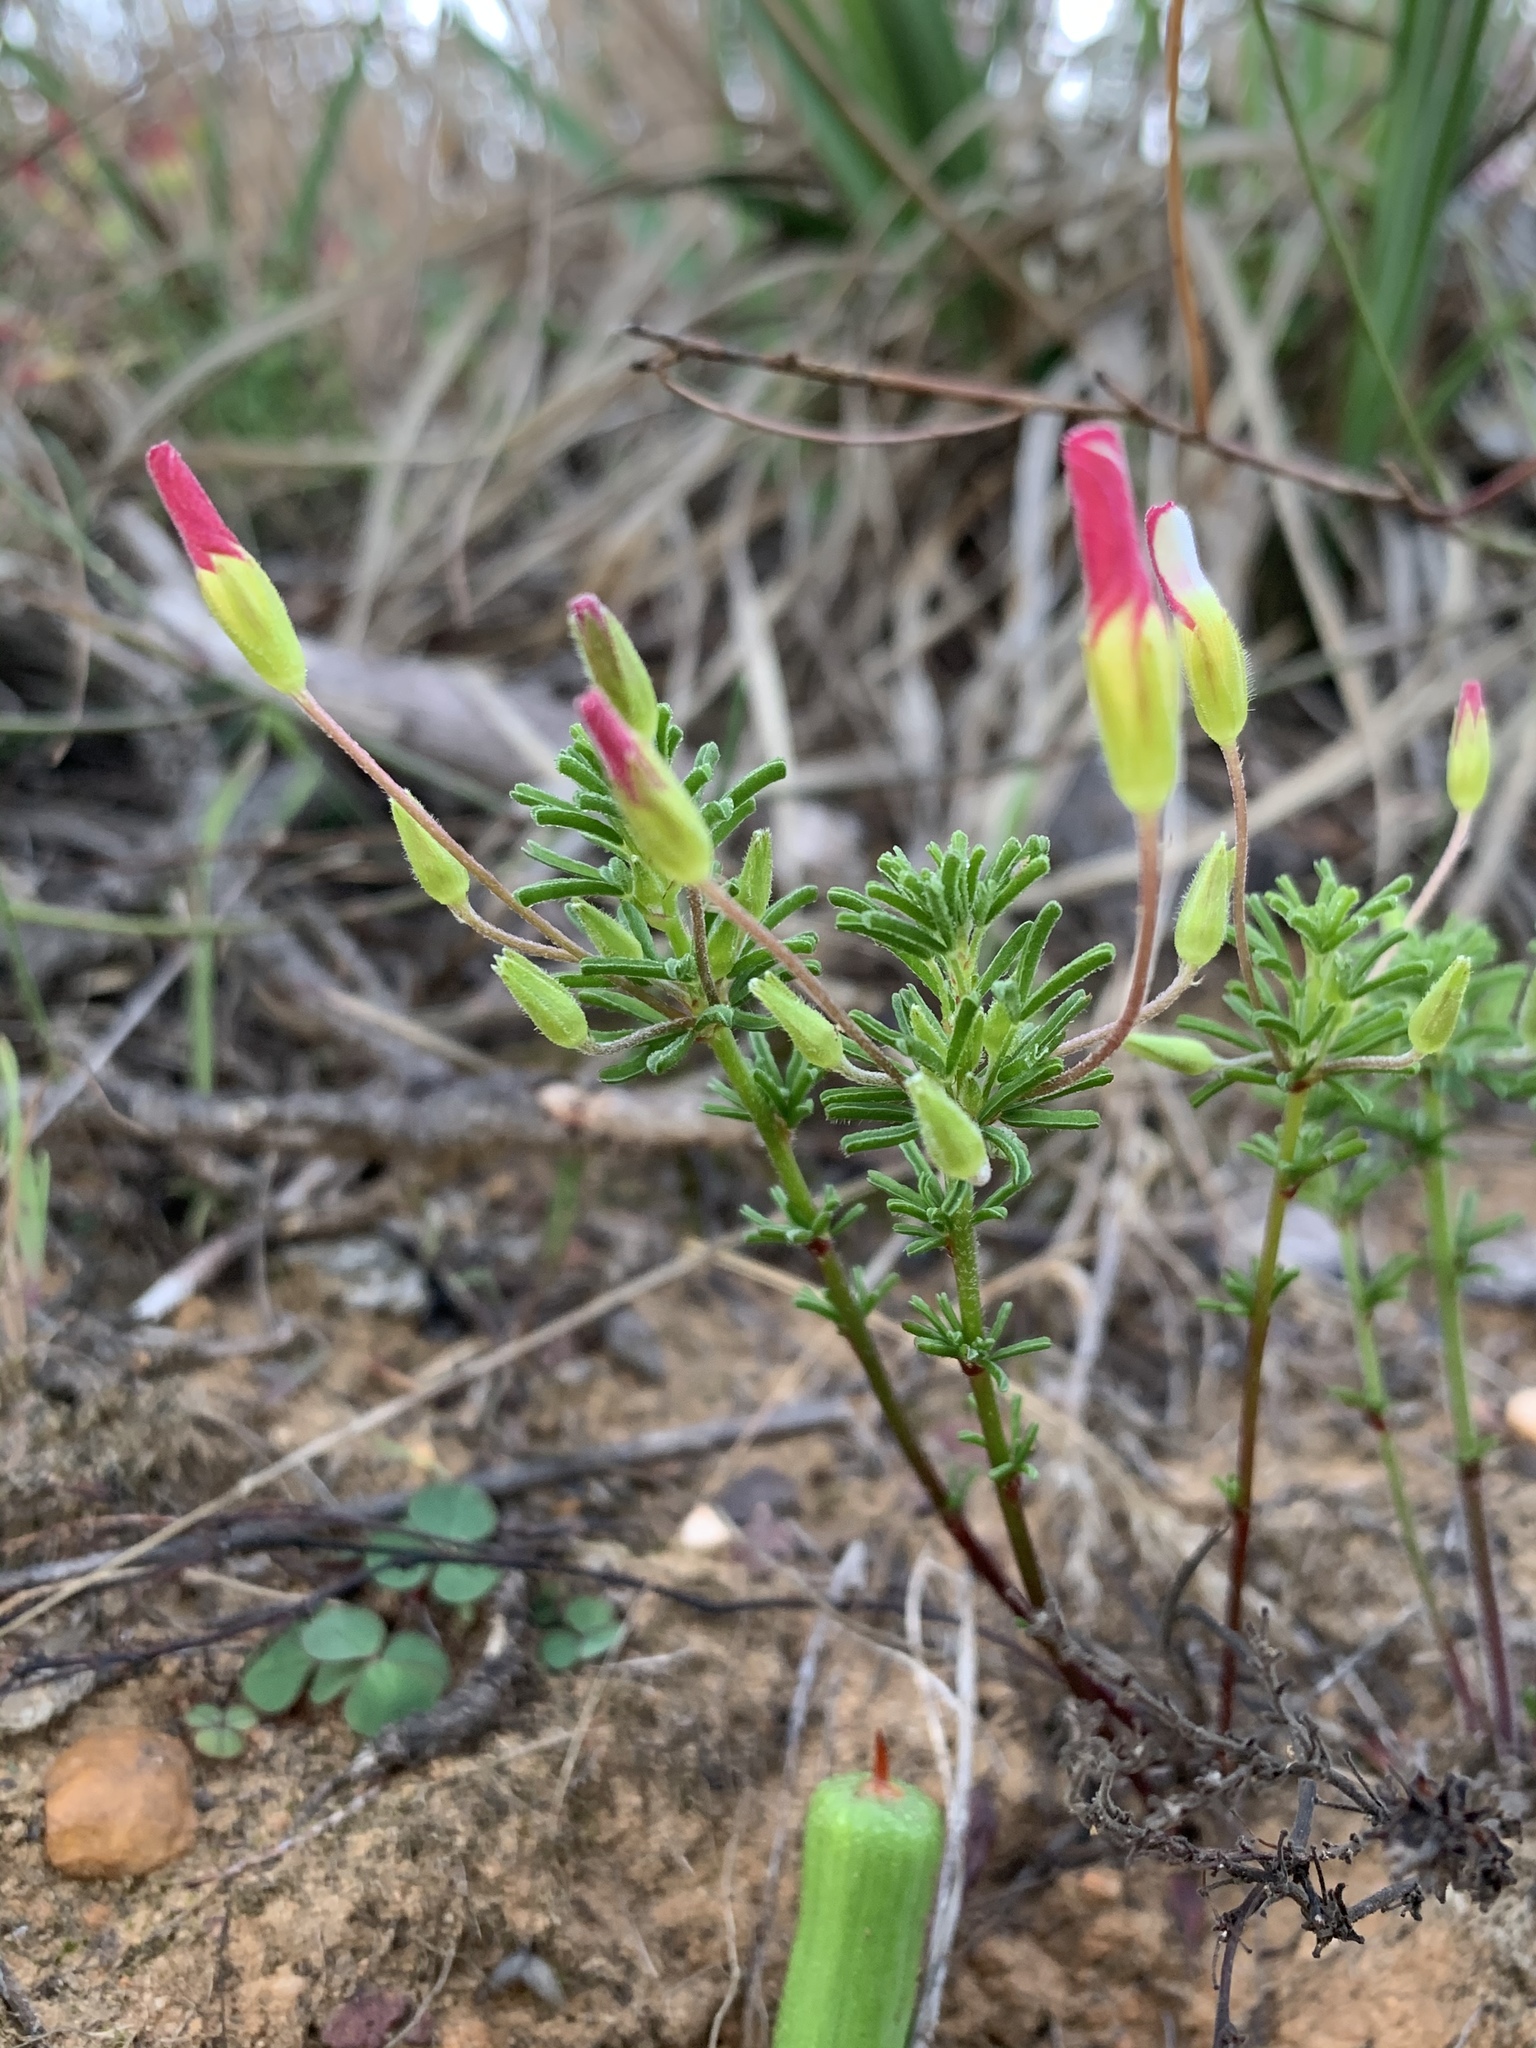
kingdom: Plantae
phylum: Tracheophyta
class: Magnoliopsida
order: Oxalidales
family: Oxalidaceae
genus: Oxalis
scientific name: Oxalis tenuifolia
